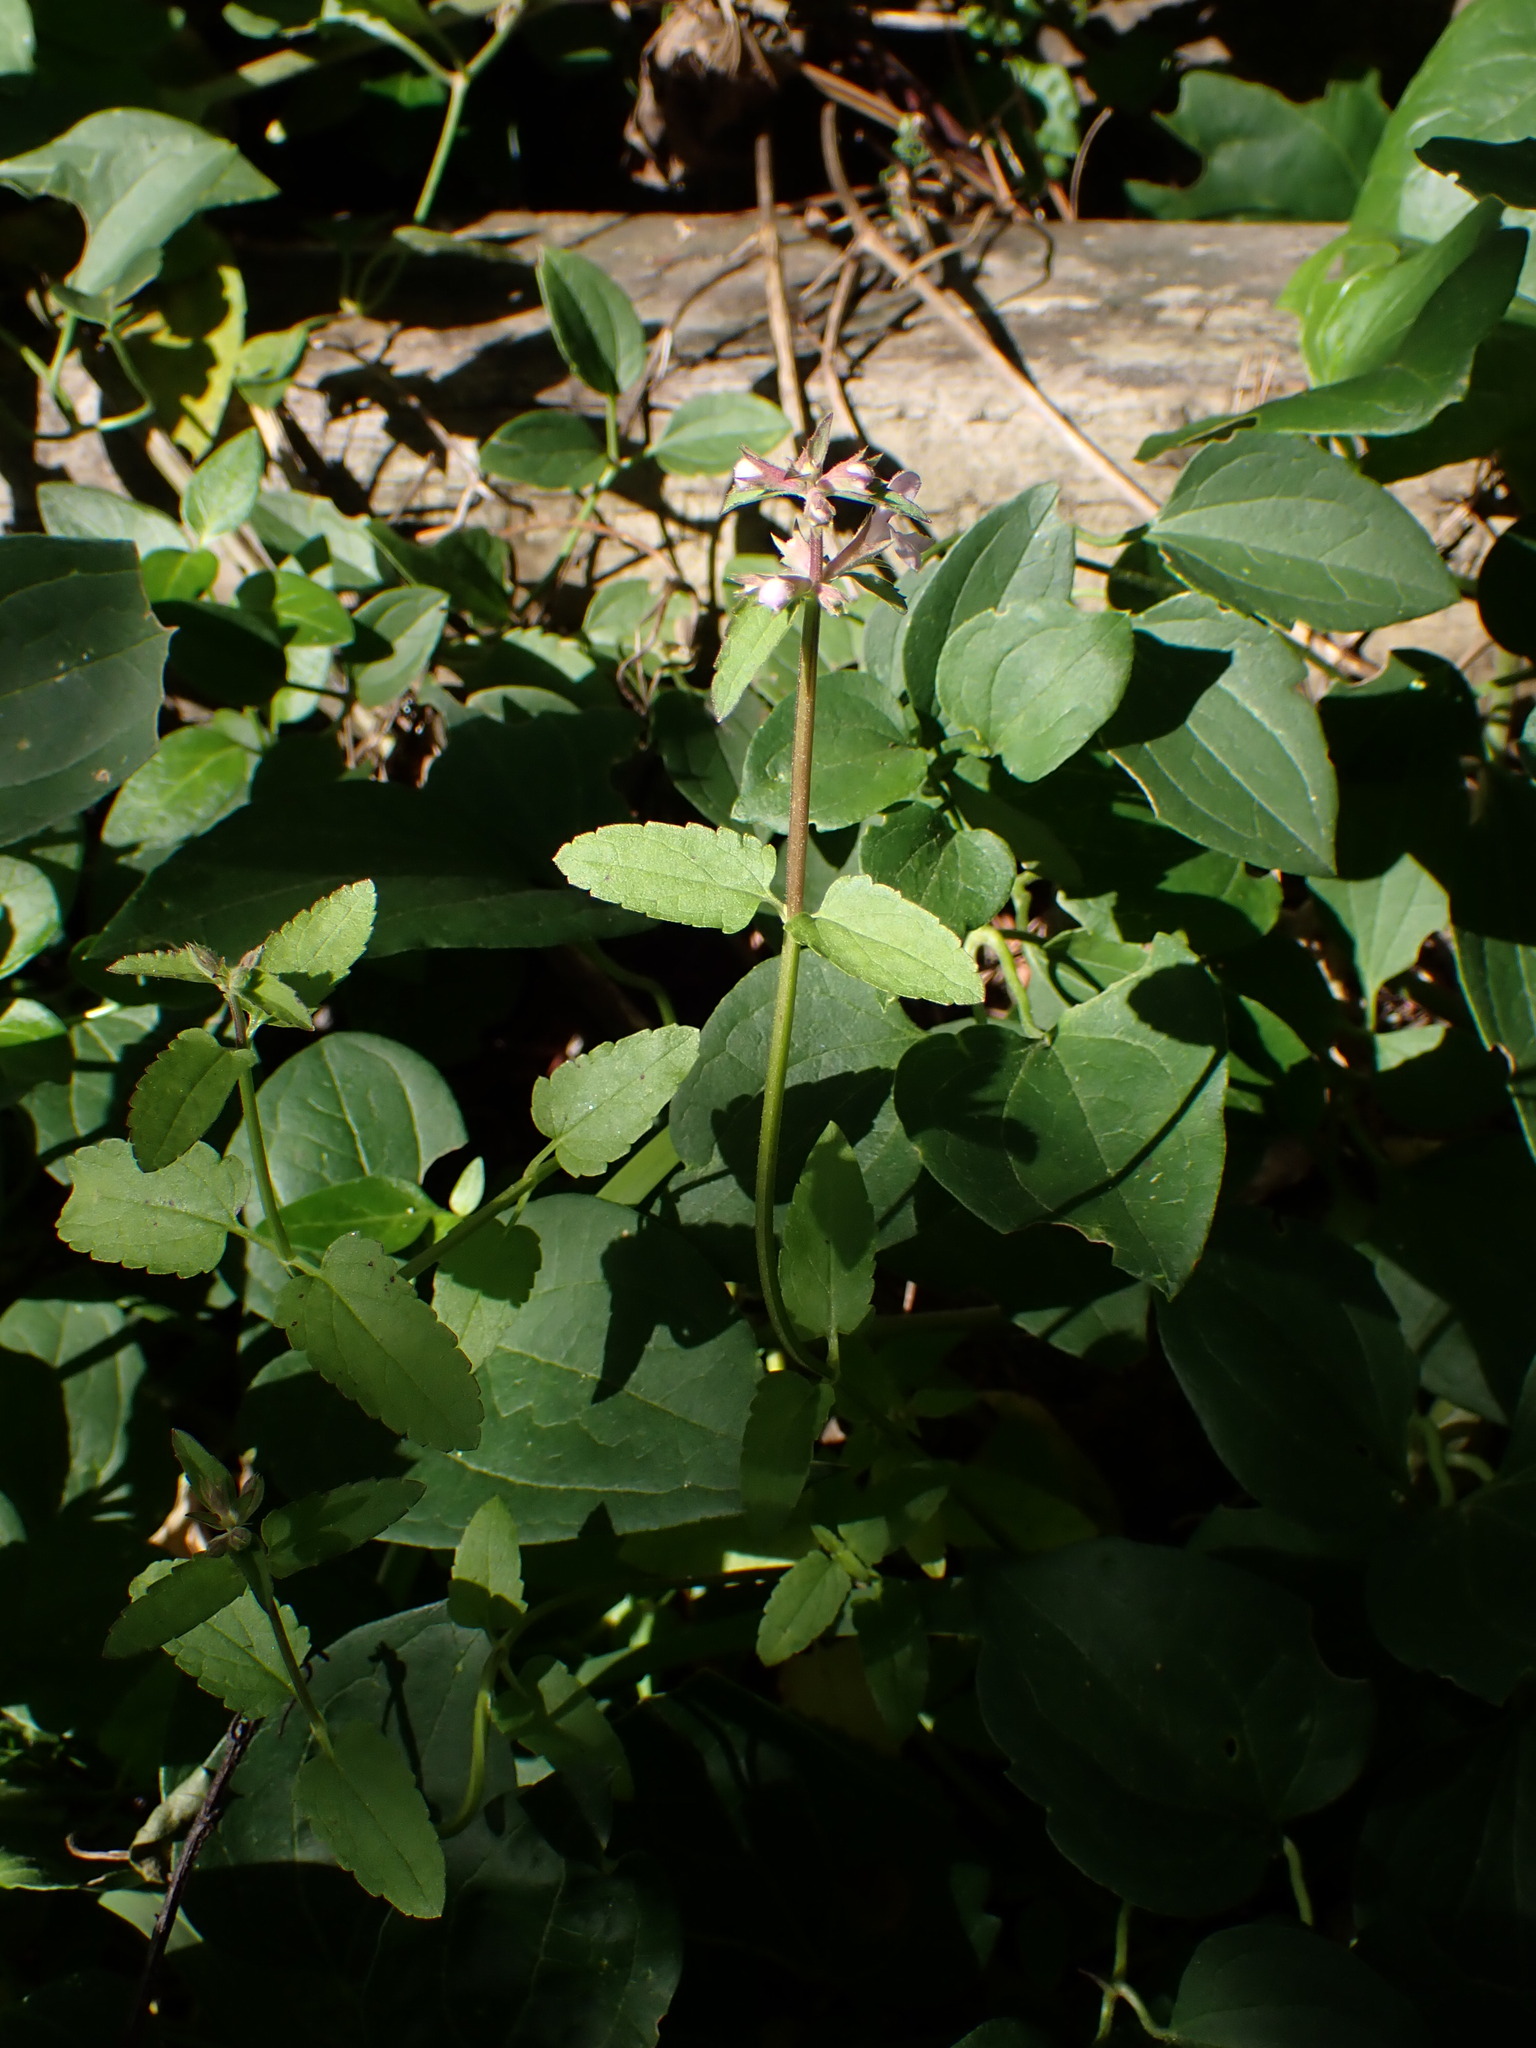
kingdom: Plantae
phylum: Tracheophyta
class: Magnoliopsida
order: Lamiales
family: Lamiaceae
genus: Stachys
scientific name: Stachys floridana
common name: Florida betony
